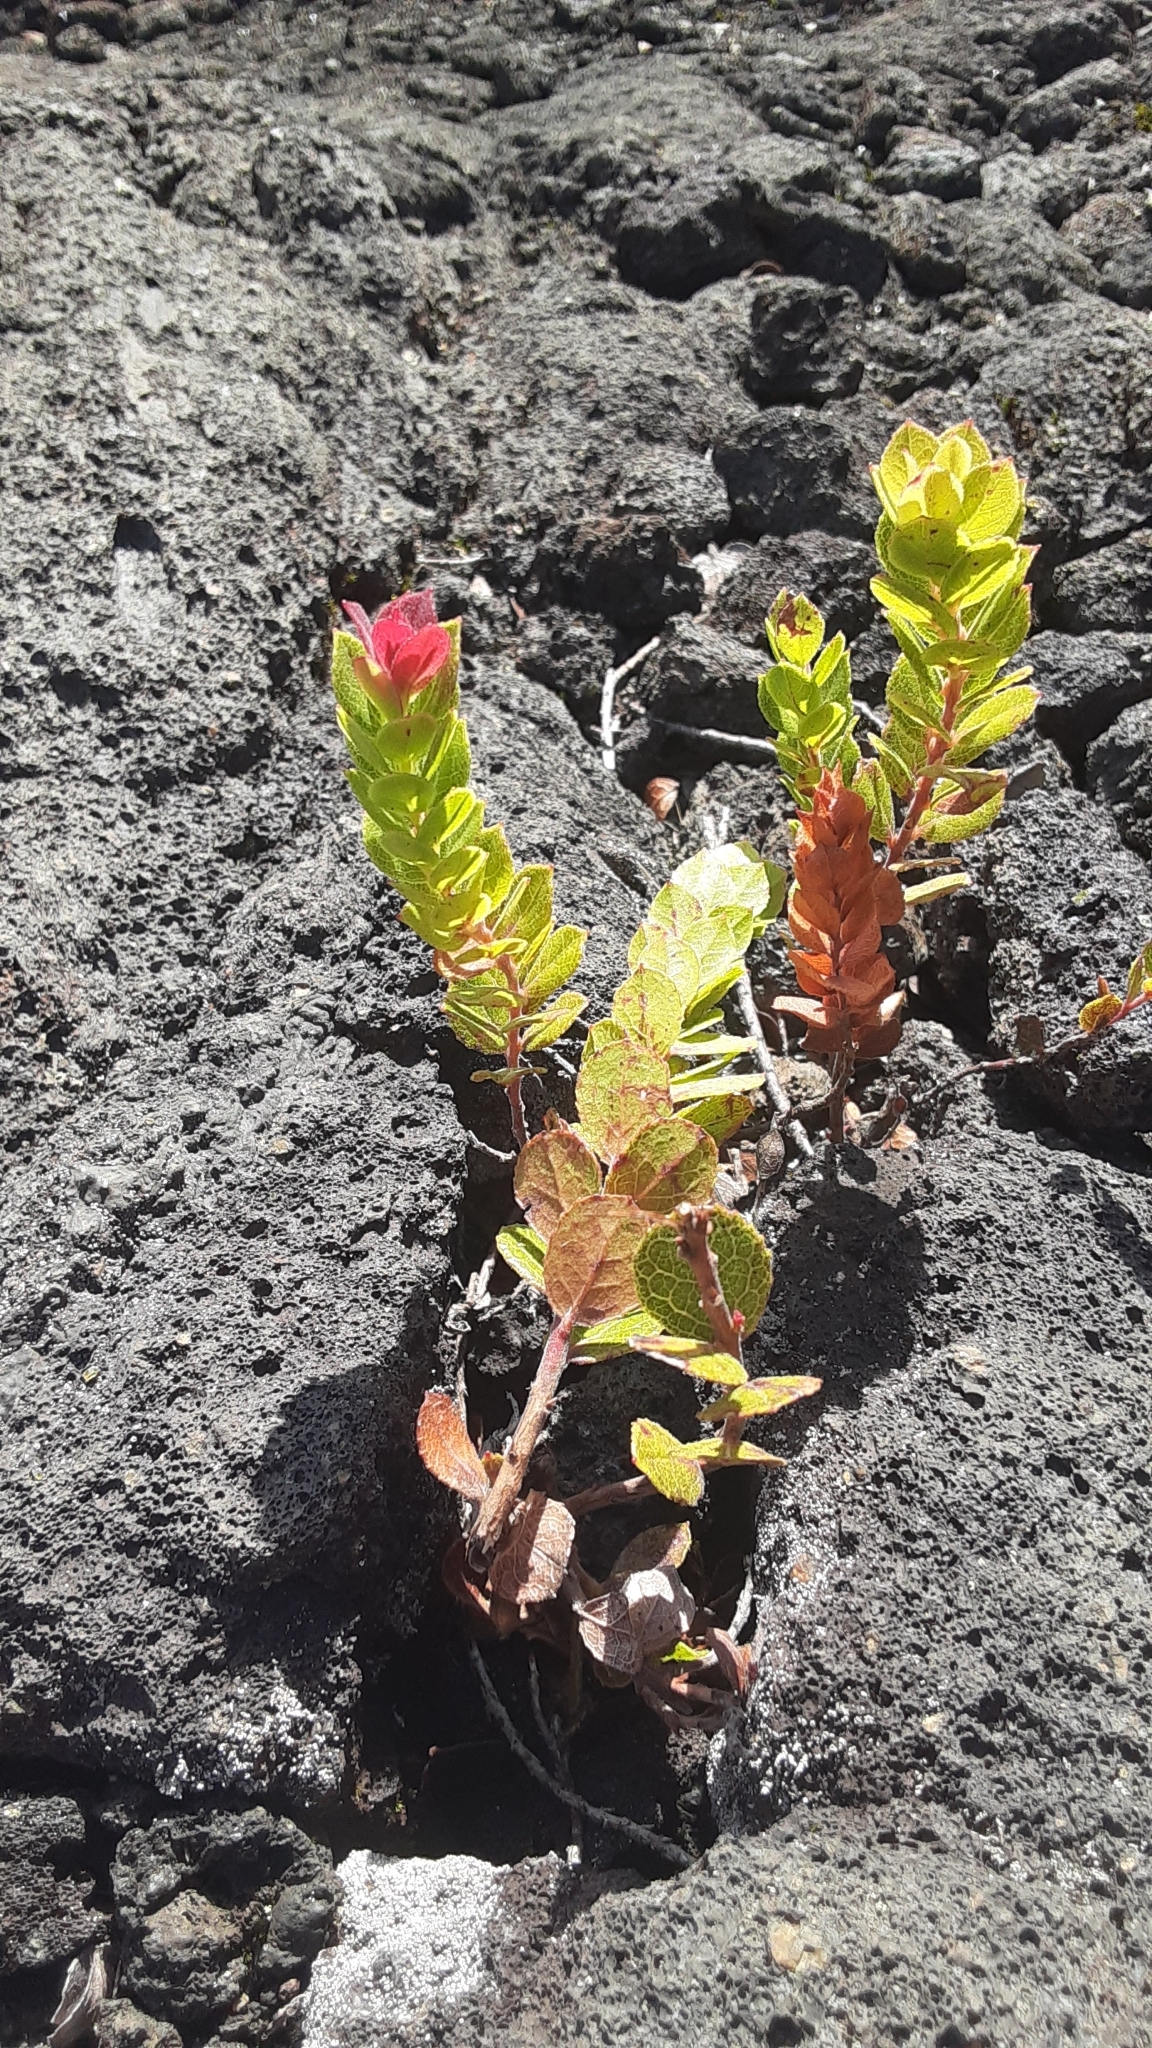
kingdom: Plantae
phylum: Tracheophyta
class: Magnoliopsida
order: Ericales
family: Ericaceae
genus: Vaccinium
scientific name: Vaccinium reticulatum
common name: Ohelo
